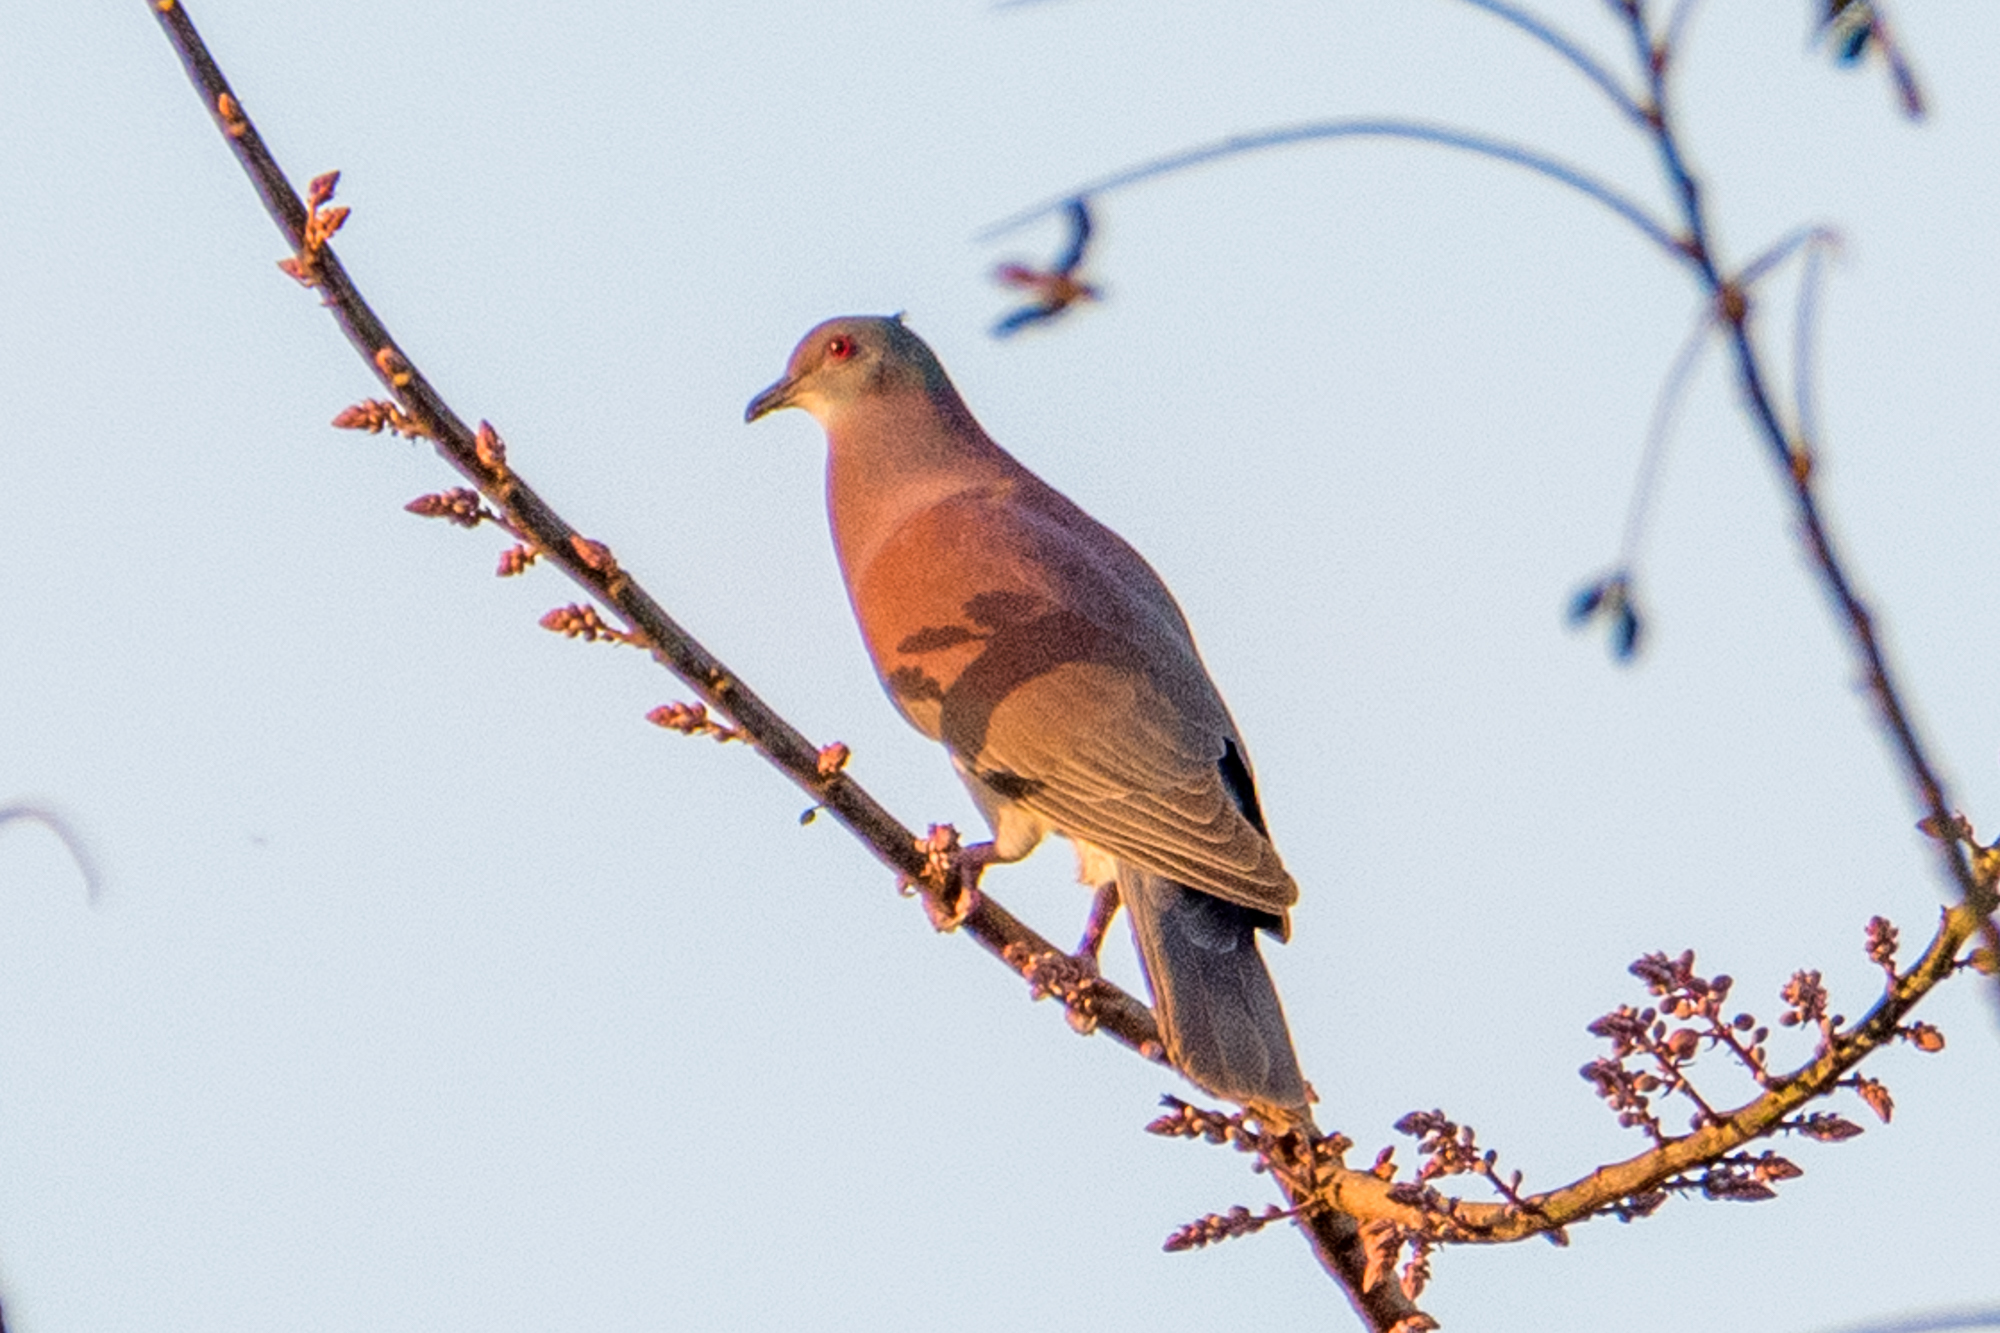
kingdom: Animalia
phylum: Chordata
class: Aves
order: Columbiformes
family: Columbidae
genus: Patagioenas
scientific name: Patagioenas cayennensis
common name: Pale-vented pigeon
